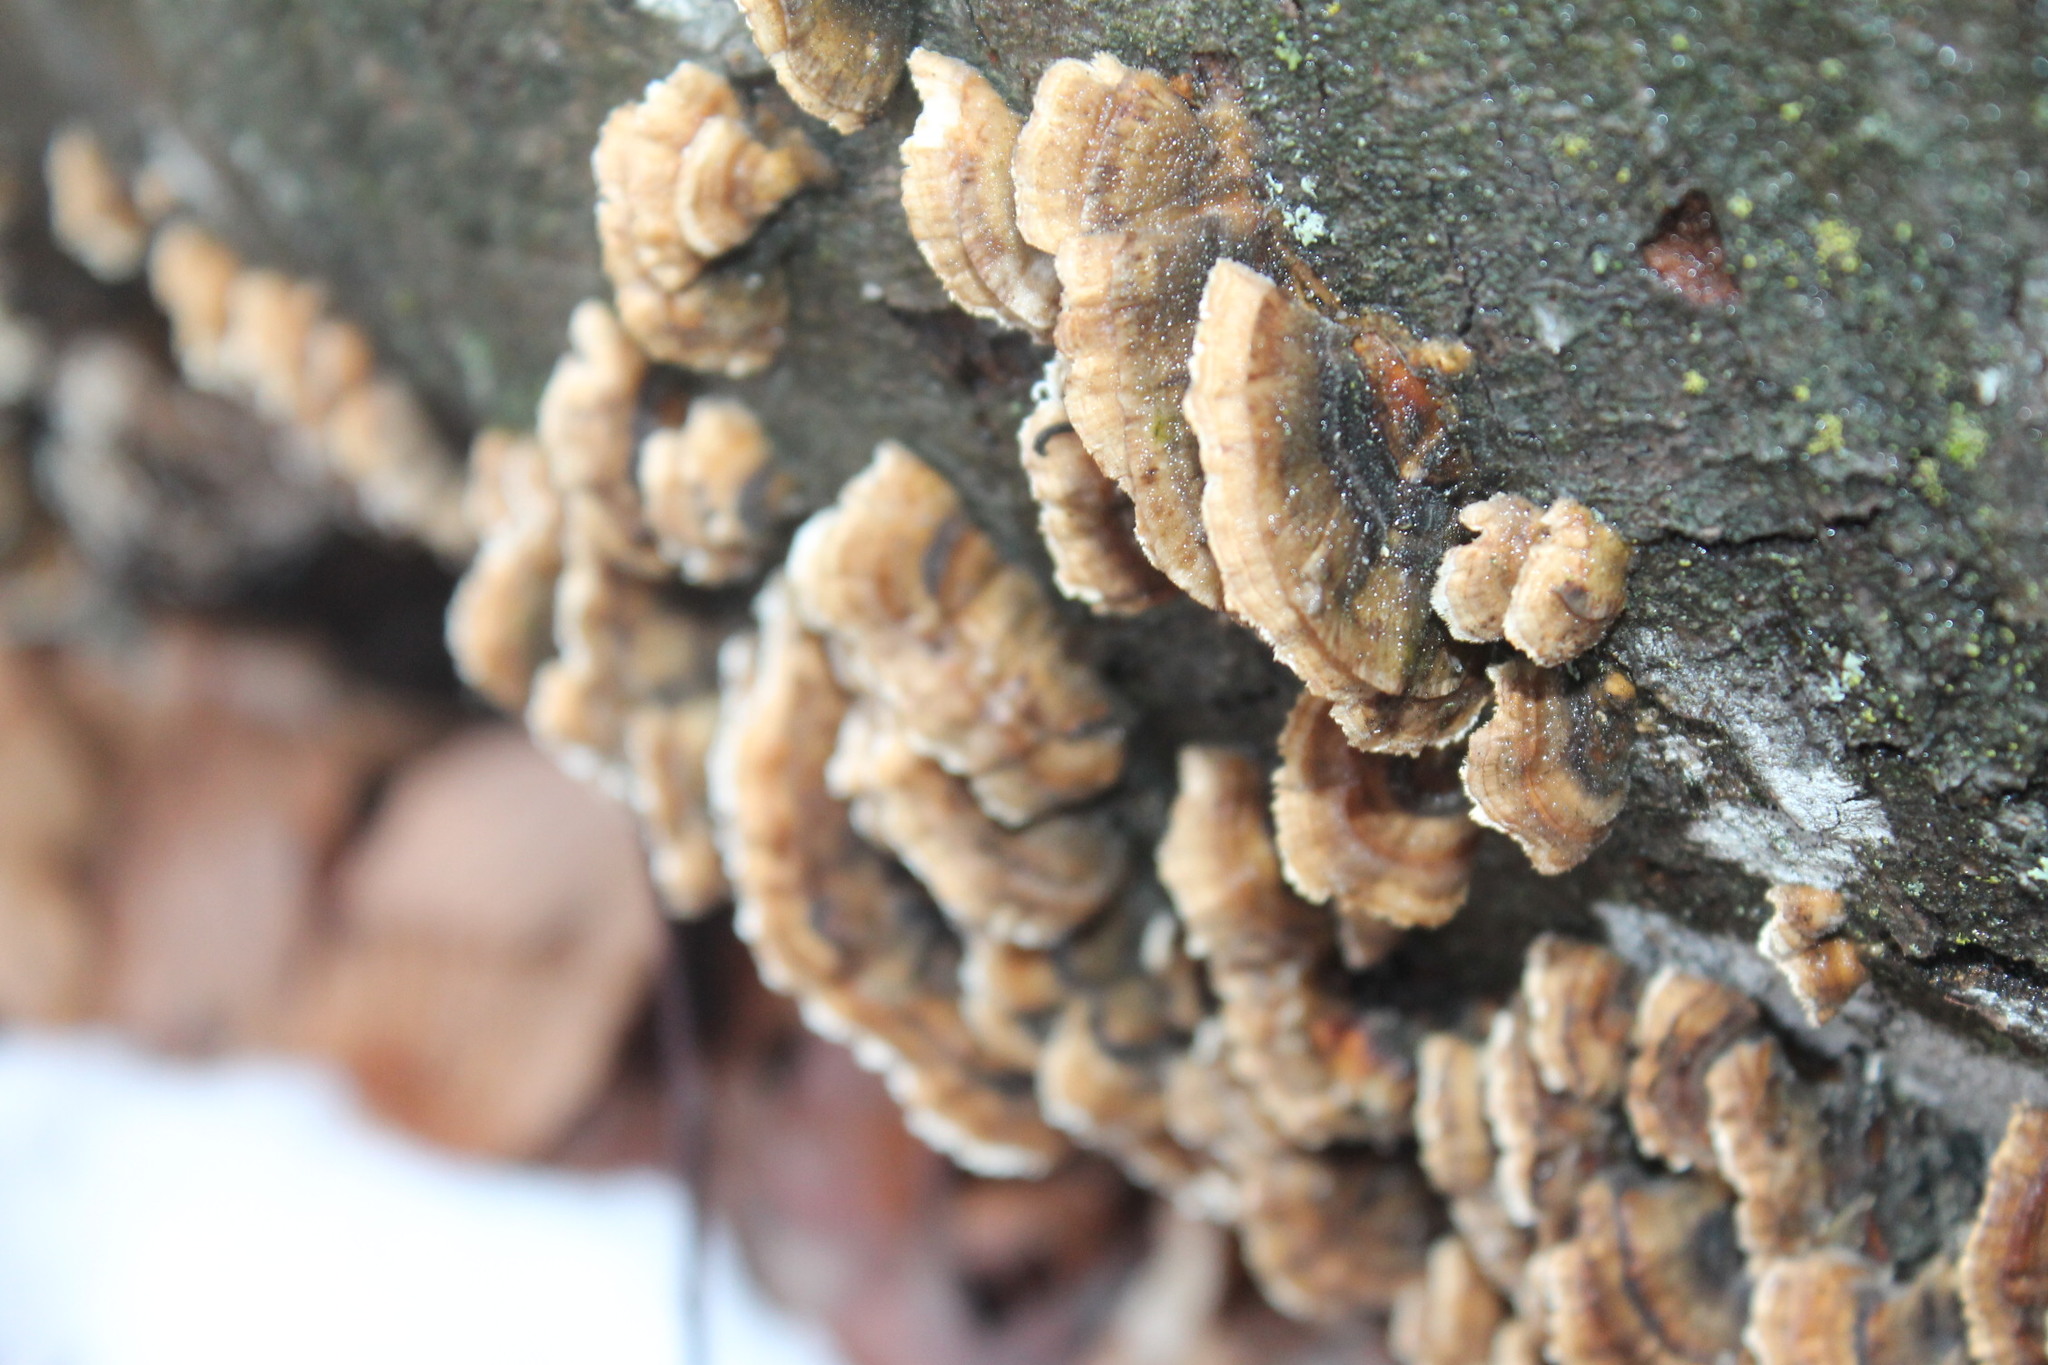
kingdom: Fungi
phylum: Basidiomycota
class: Agaricomycetes
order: Polyporales
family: Polyporaceae
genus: Trametes
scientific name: Trametes versicolor
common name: Turkeytail
